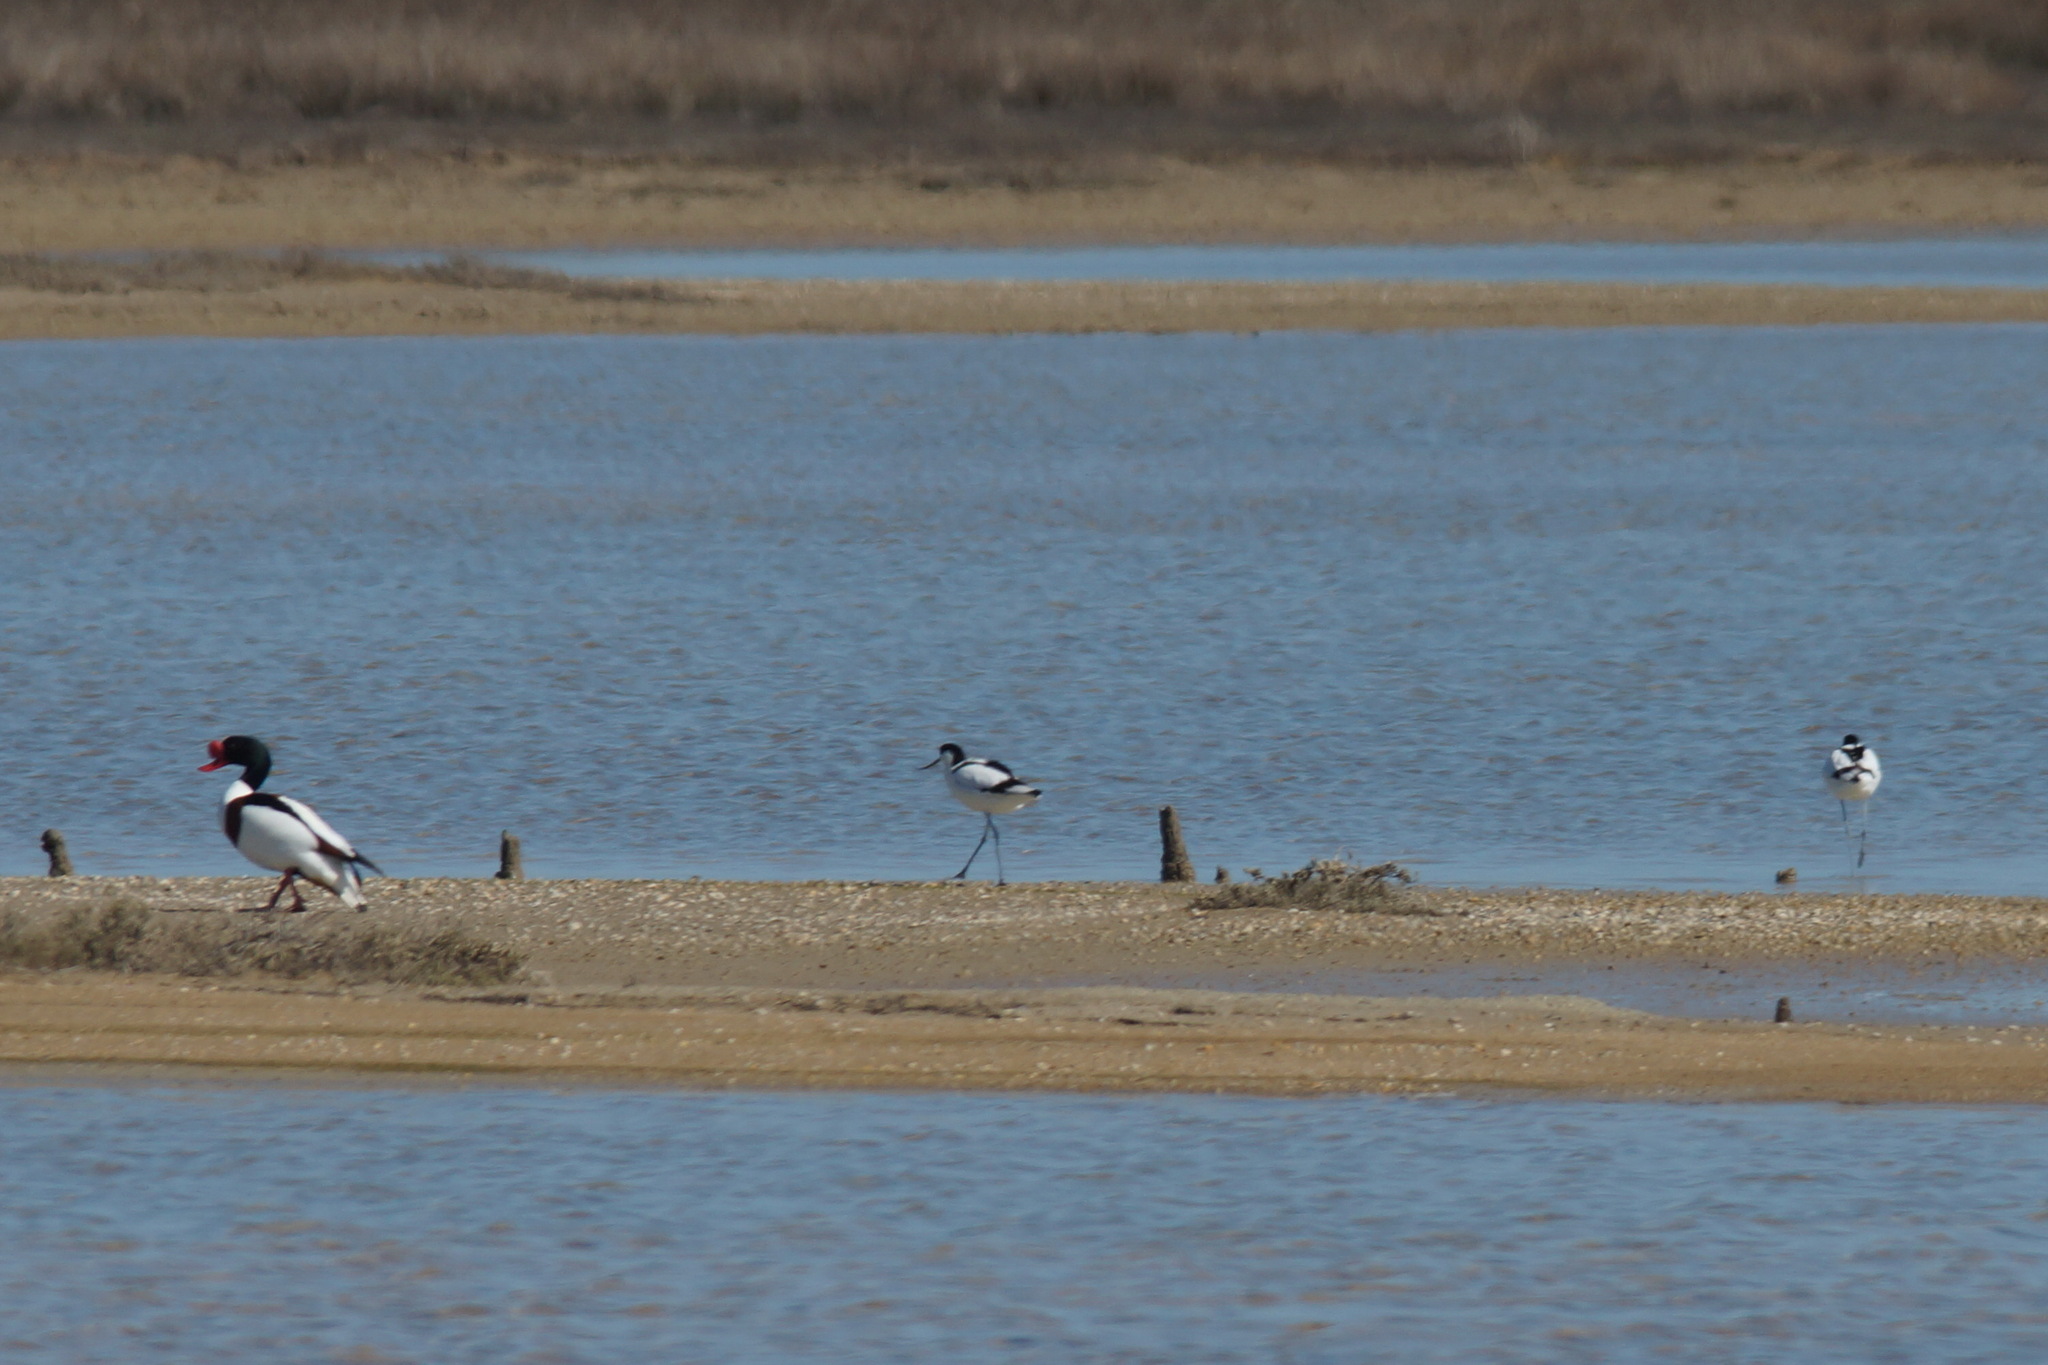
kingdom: Animalia
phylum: Chordata
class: Aves
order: Charadriiformes
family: Recurvirostridae
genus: Recurvirostra
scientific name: Recurvirostra avosetta
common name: Pied avocet
